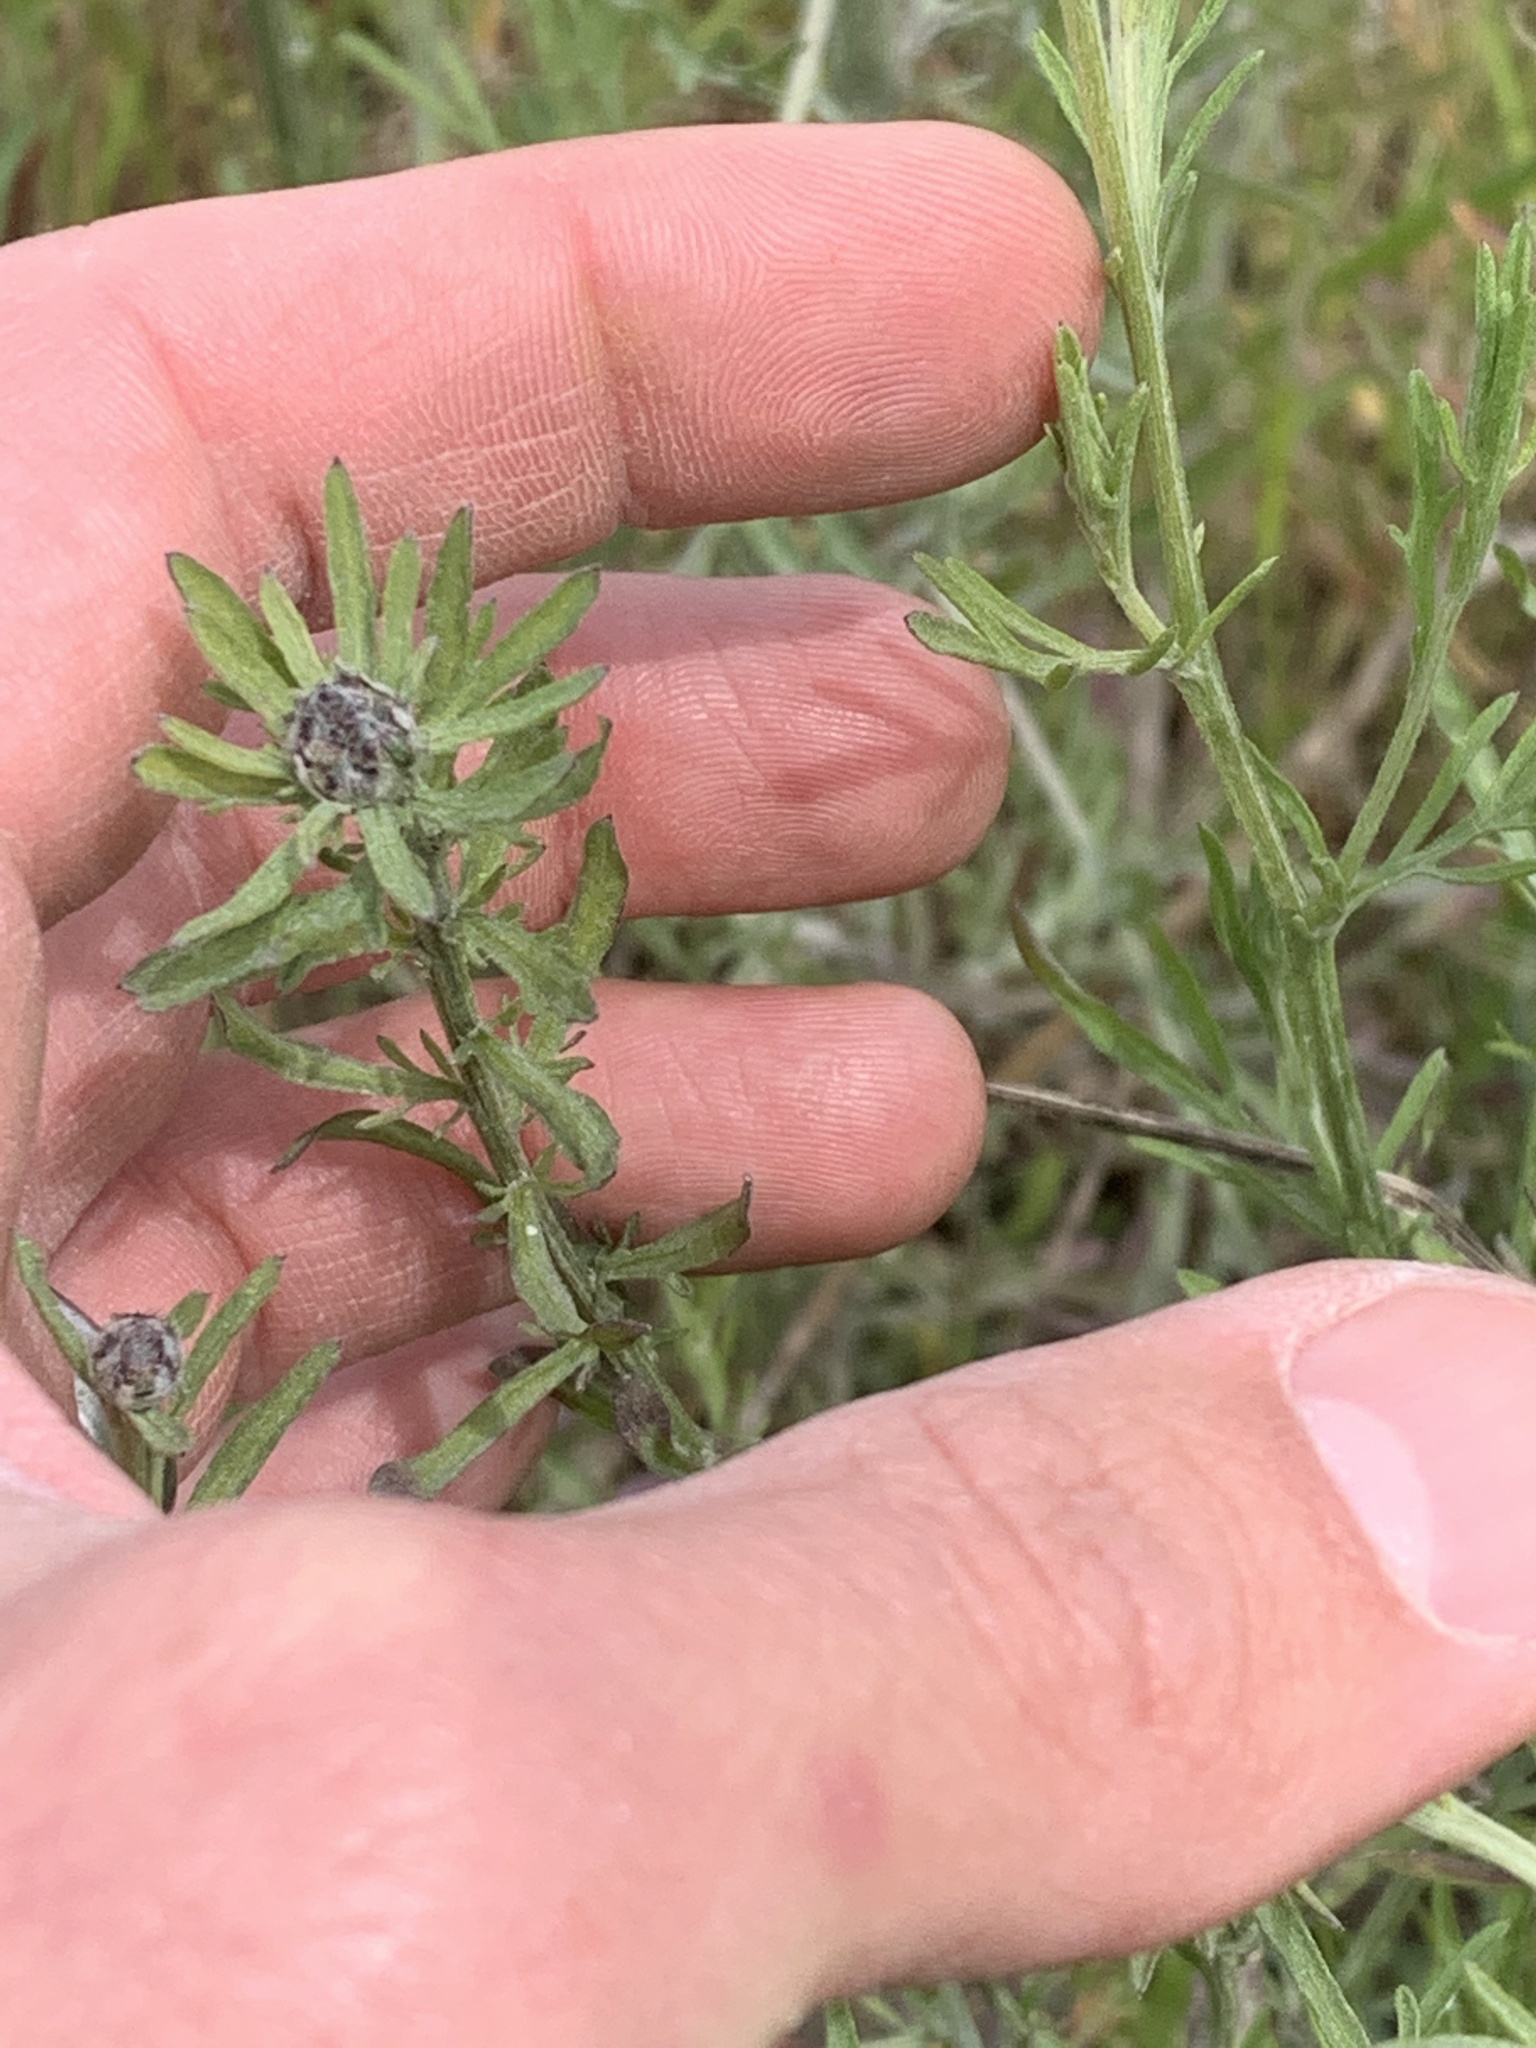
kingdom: Plantae
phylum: Tracheophyta
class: Magnoliopsida
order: Asterales
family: Asteraceae
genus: Centaurea
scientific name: Centaurea stoebe
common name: Spotted knapweed
